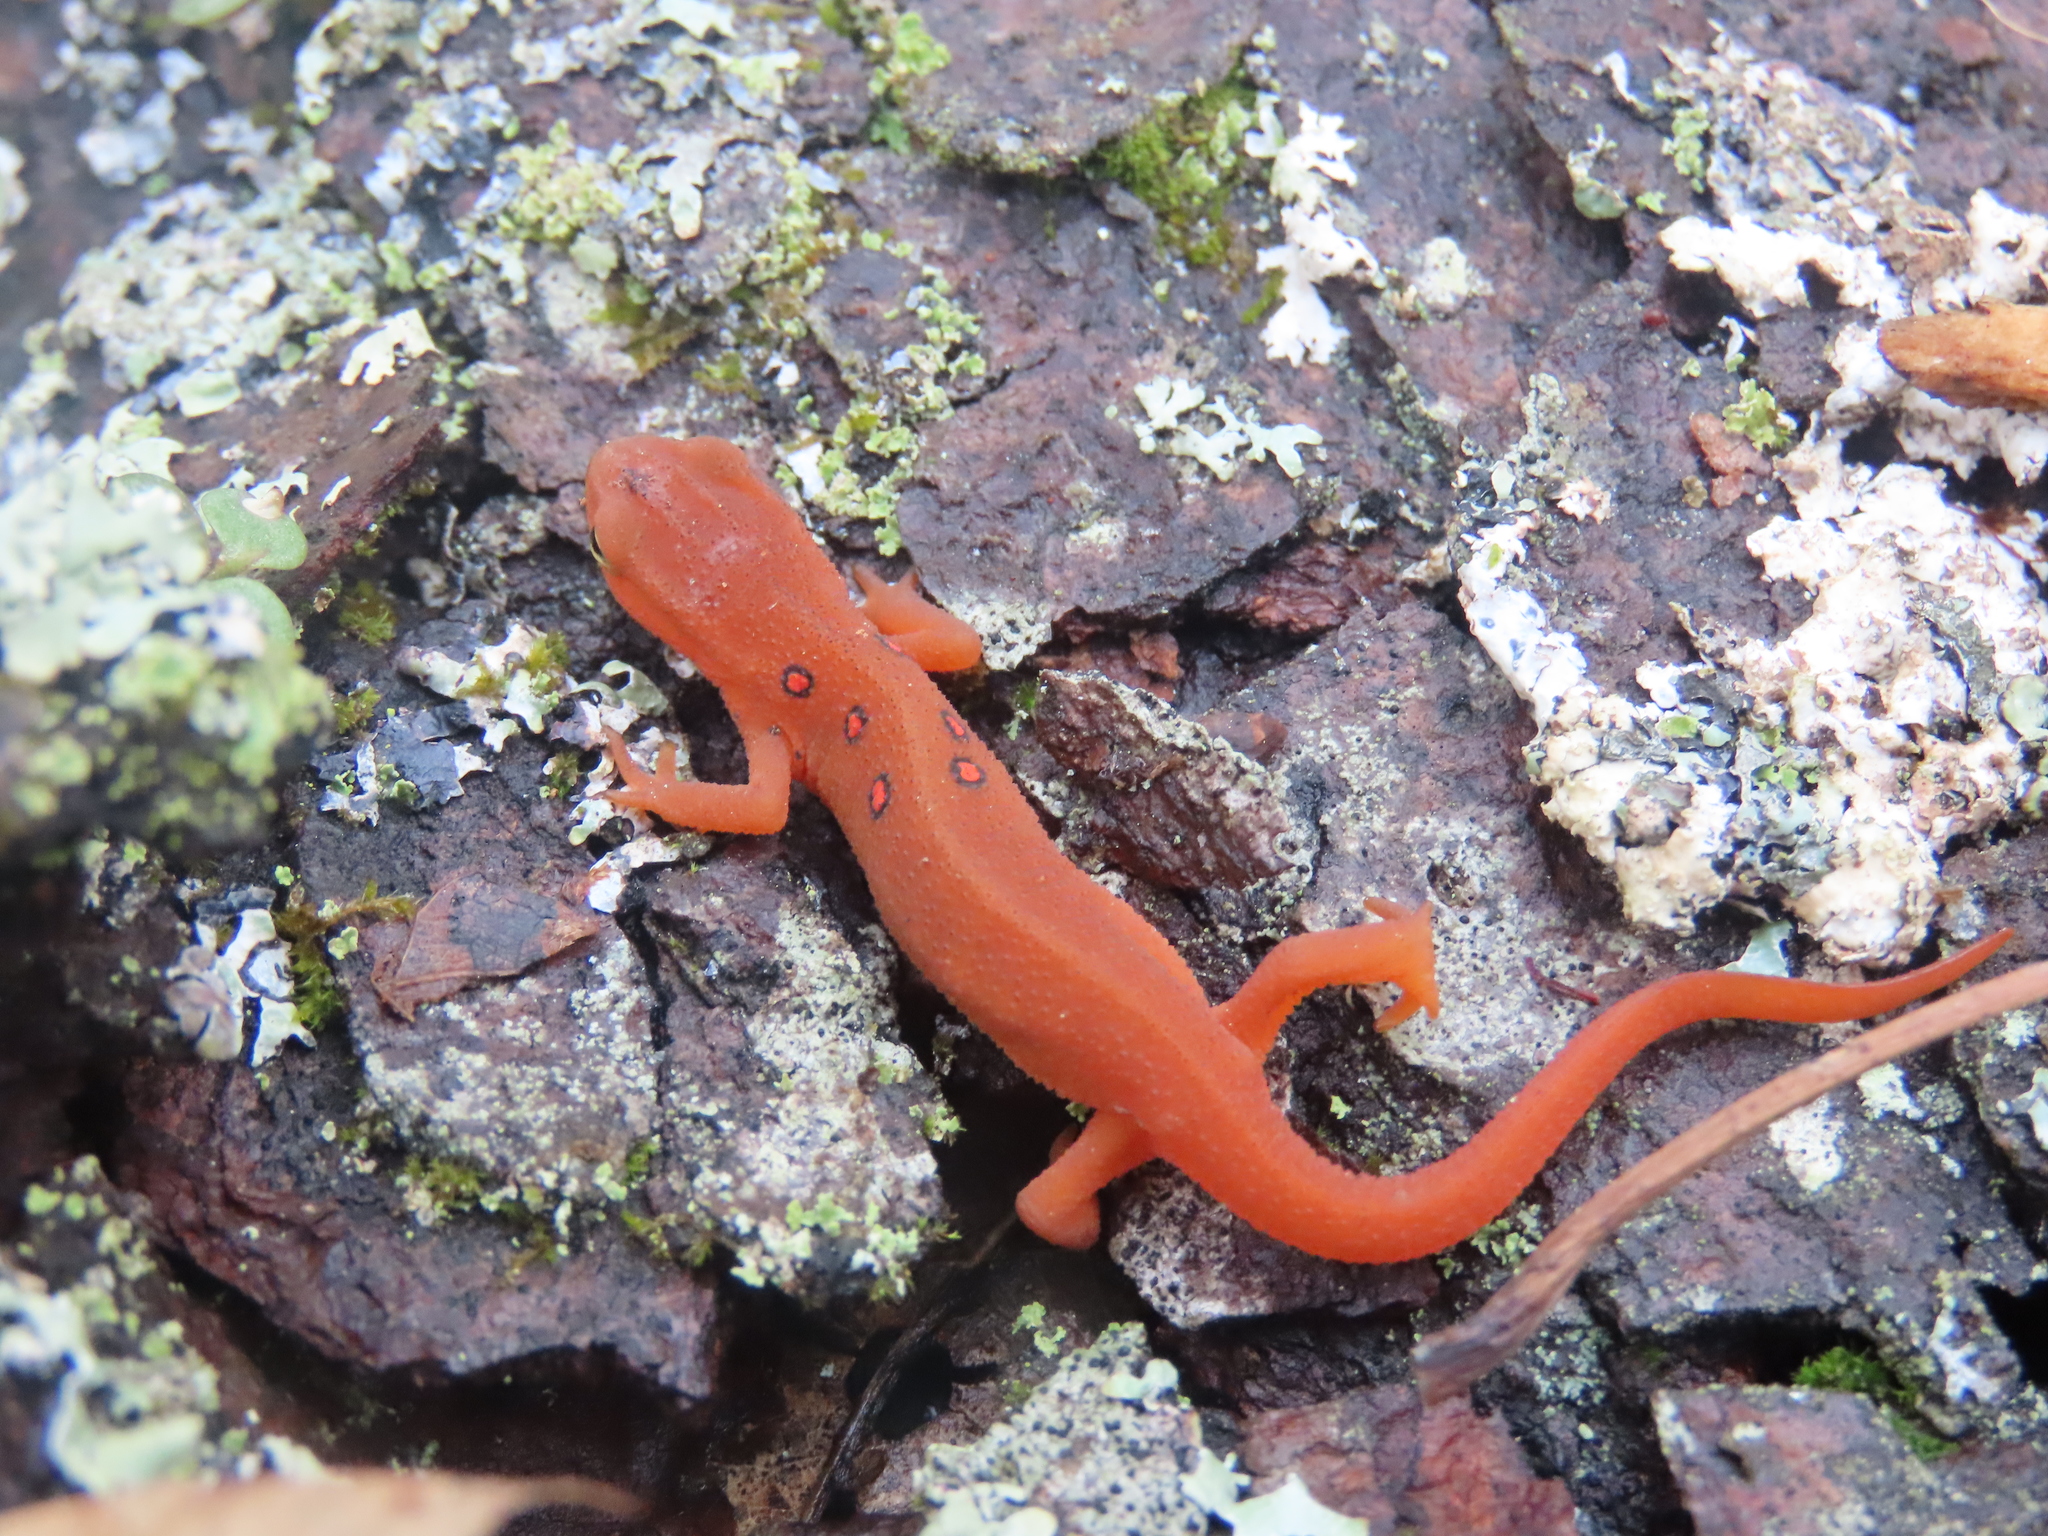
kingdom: Animalia
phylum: Chordata
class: Amphibia
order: Caudata
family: Salamandridae
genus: Notophthalmus
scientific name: Notophthalmus viridescens
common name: Eastern newt
